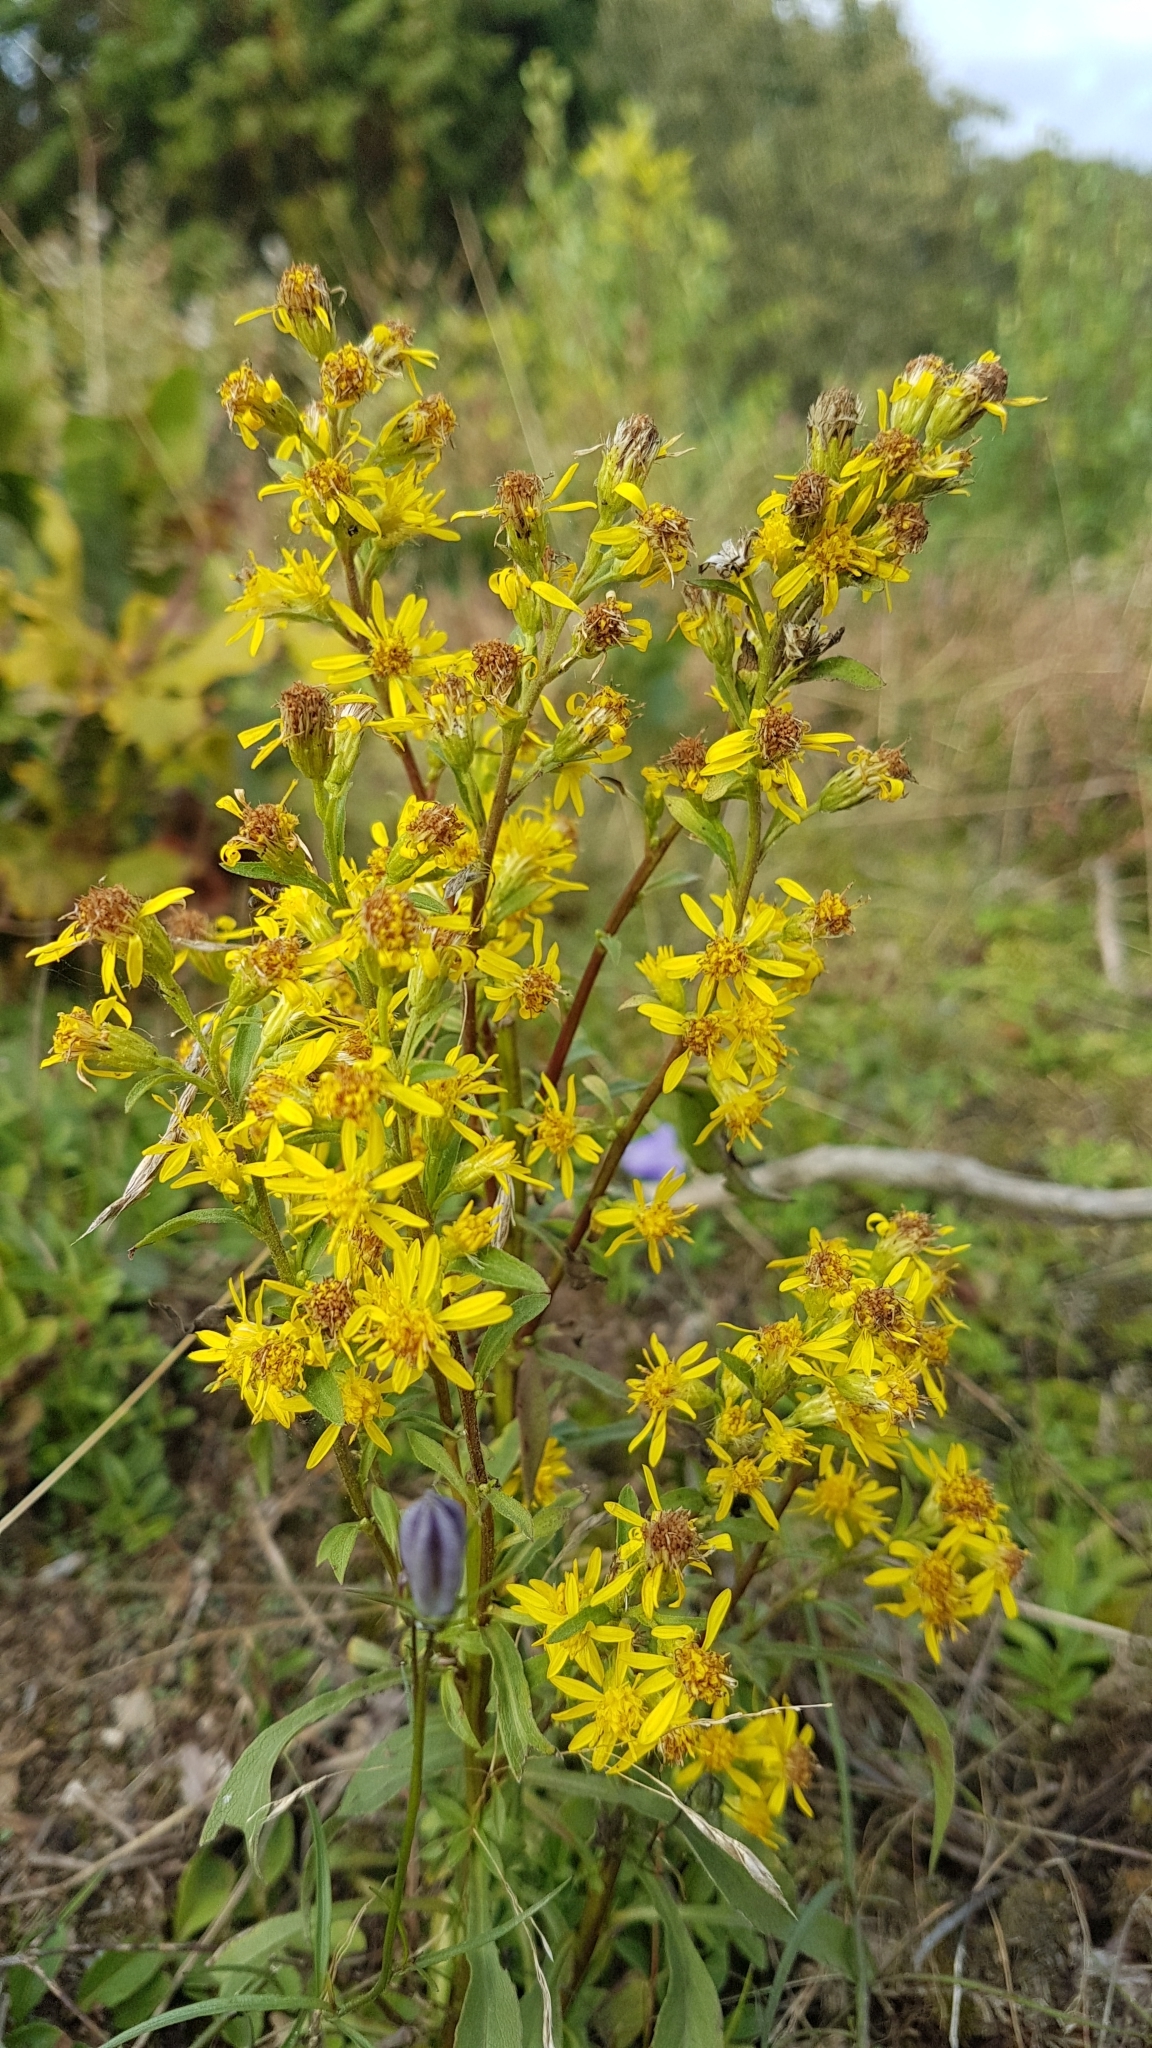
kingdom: Plantae
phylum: Tracheophyta
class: Magnoliopsida
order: Asterales
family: Asteraceae
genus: Solidago
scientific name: Solidago virgaurea
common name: Goldenrod
